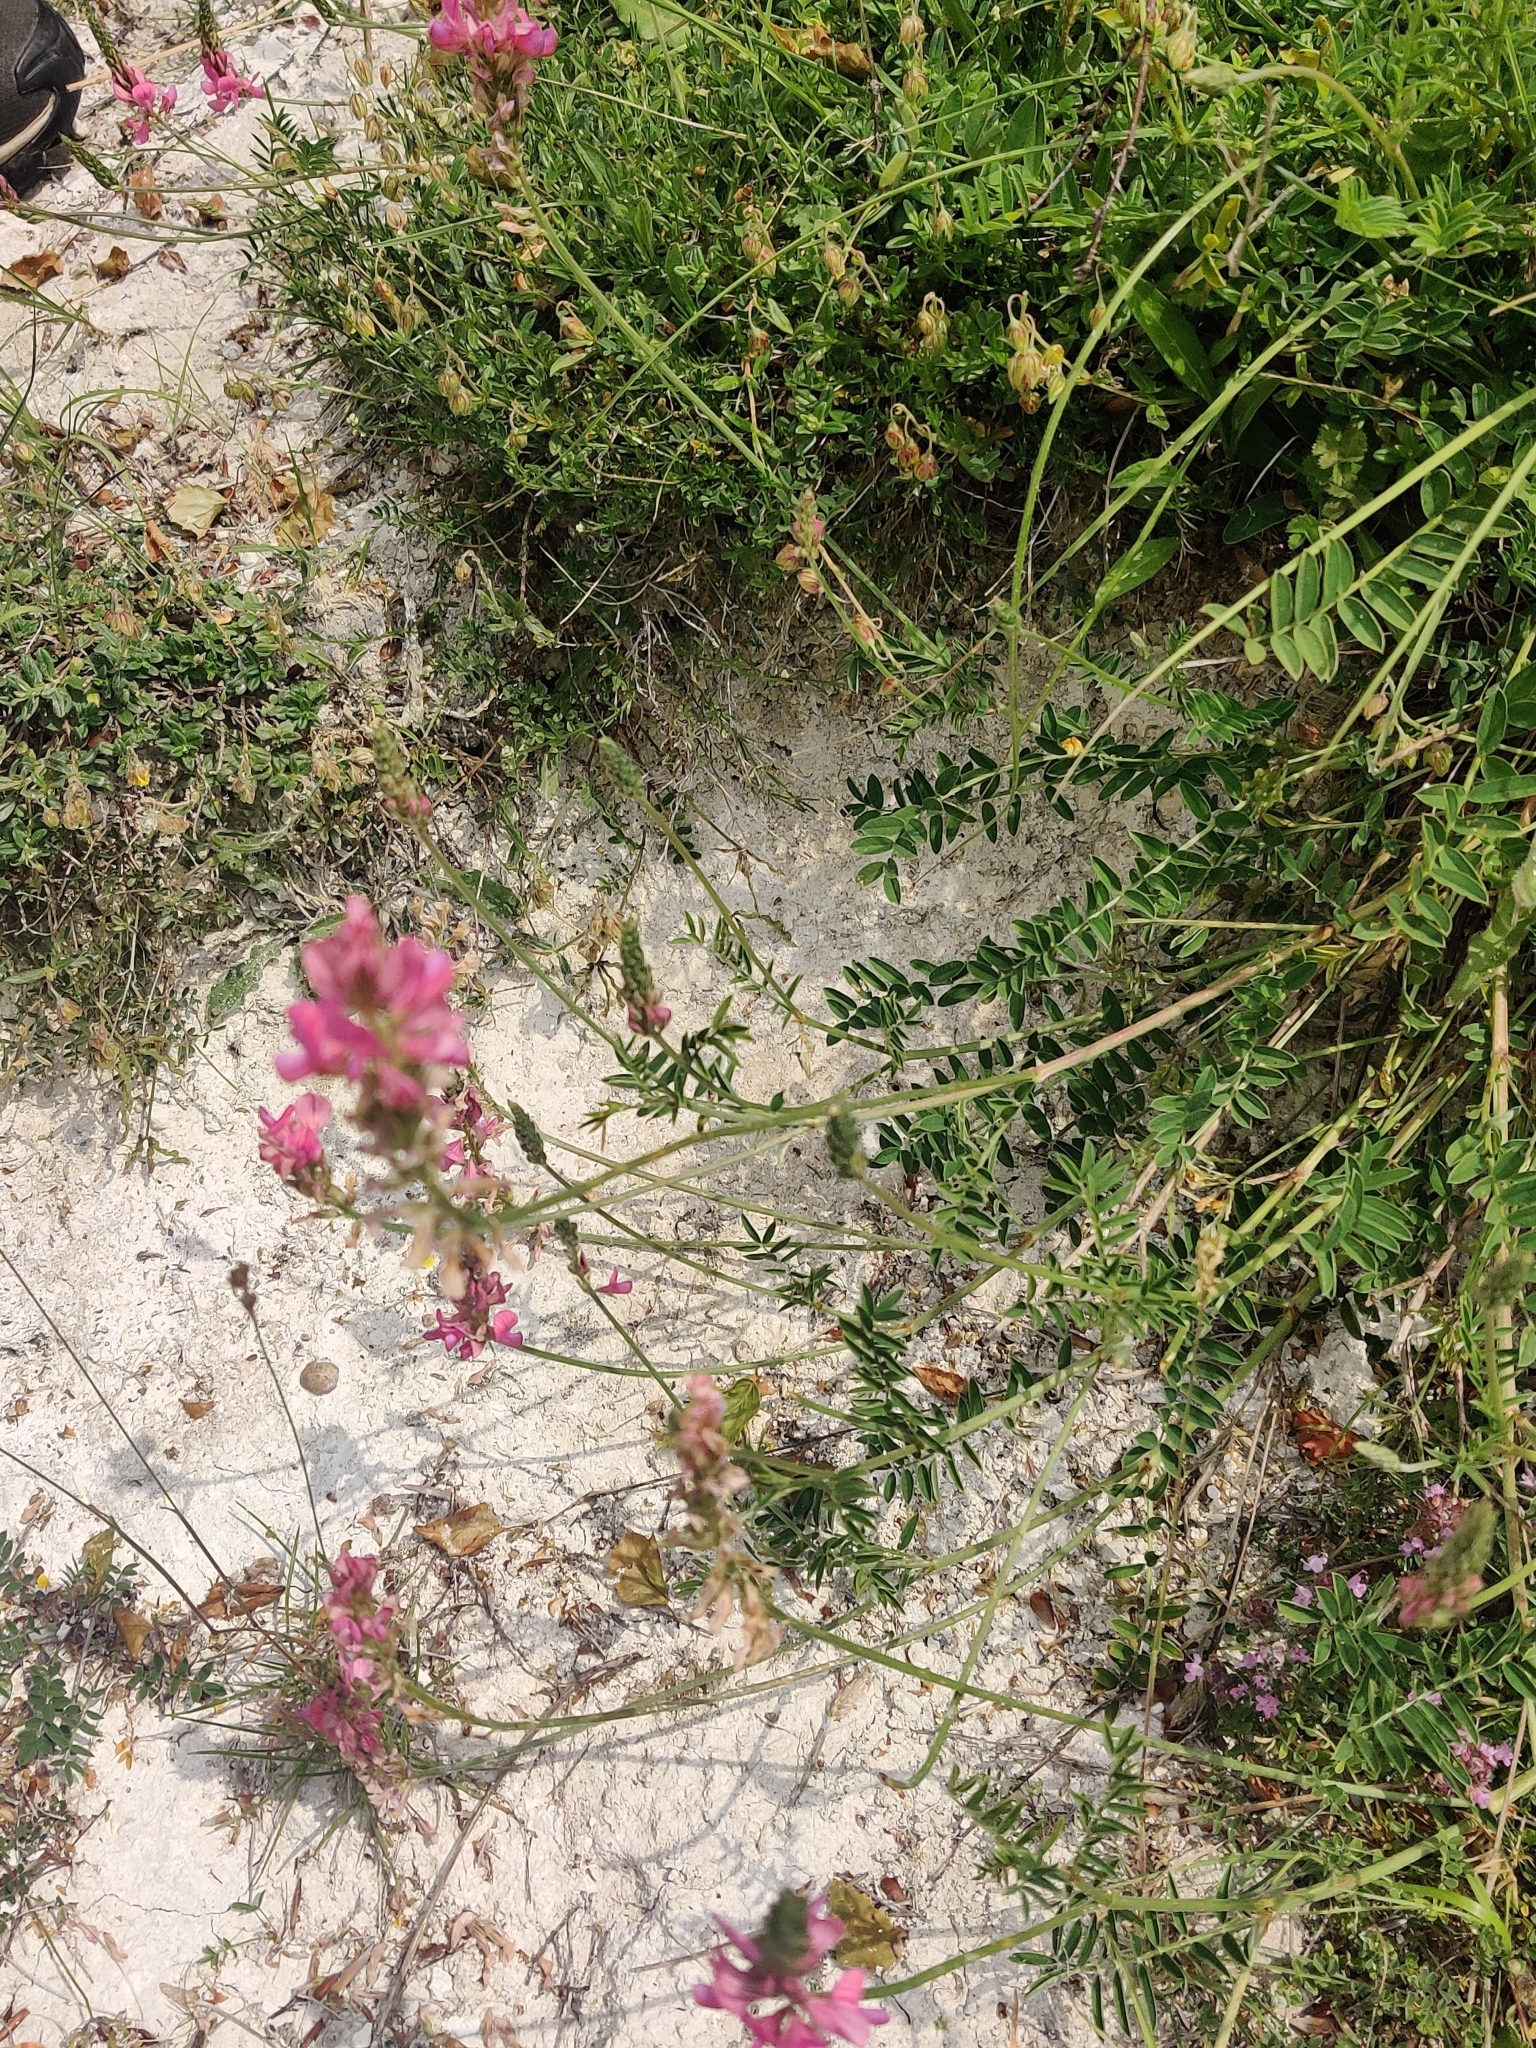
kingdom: Plantae
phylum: Tracheophyta
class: Magnoliopsida
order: Fabales
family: Fabaceae
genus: Onobrychis
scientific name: Onobrychis viciifolia
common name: Sainfoin
